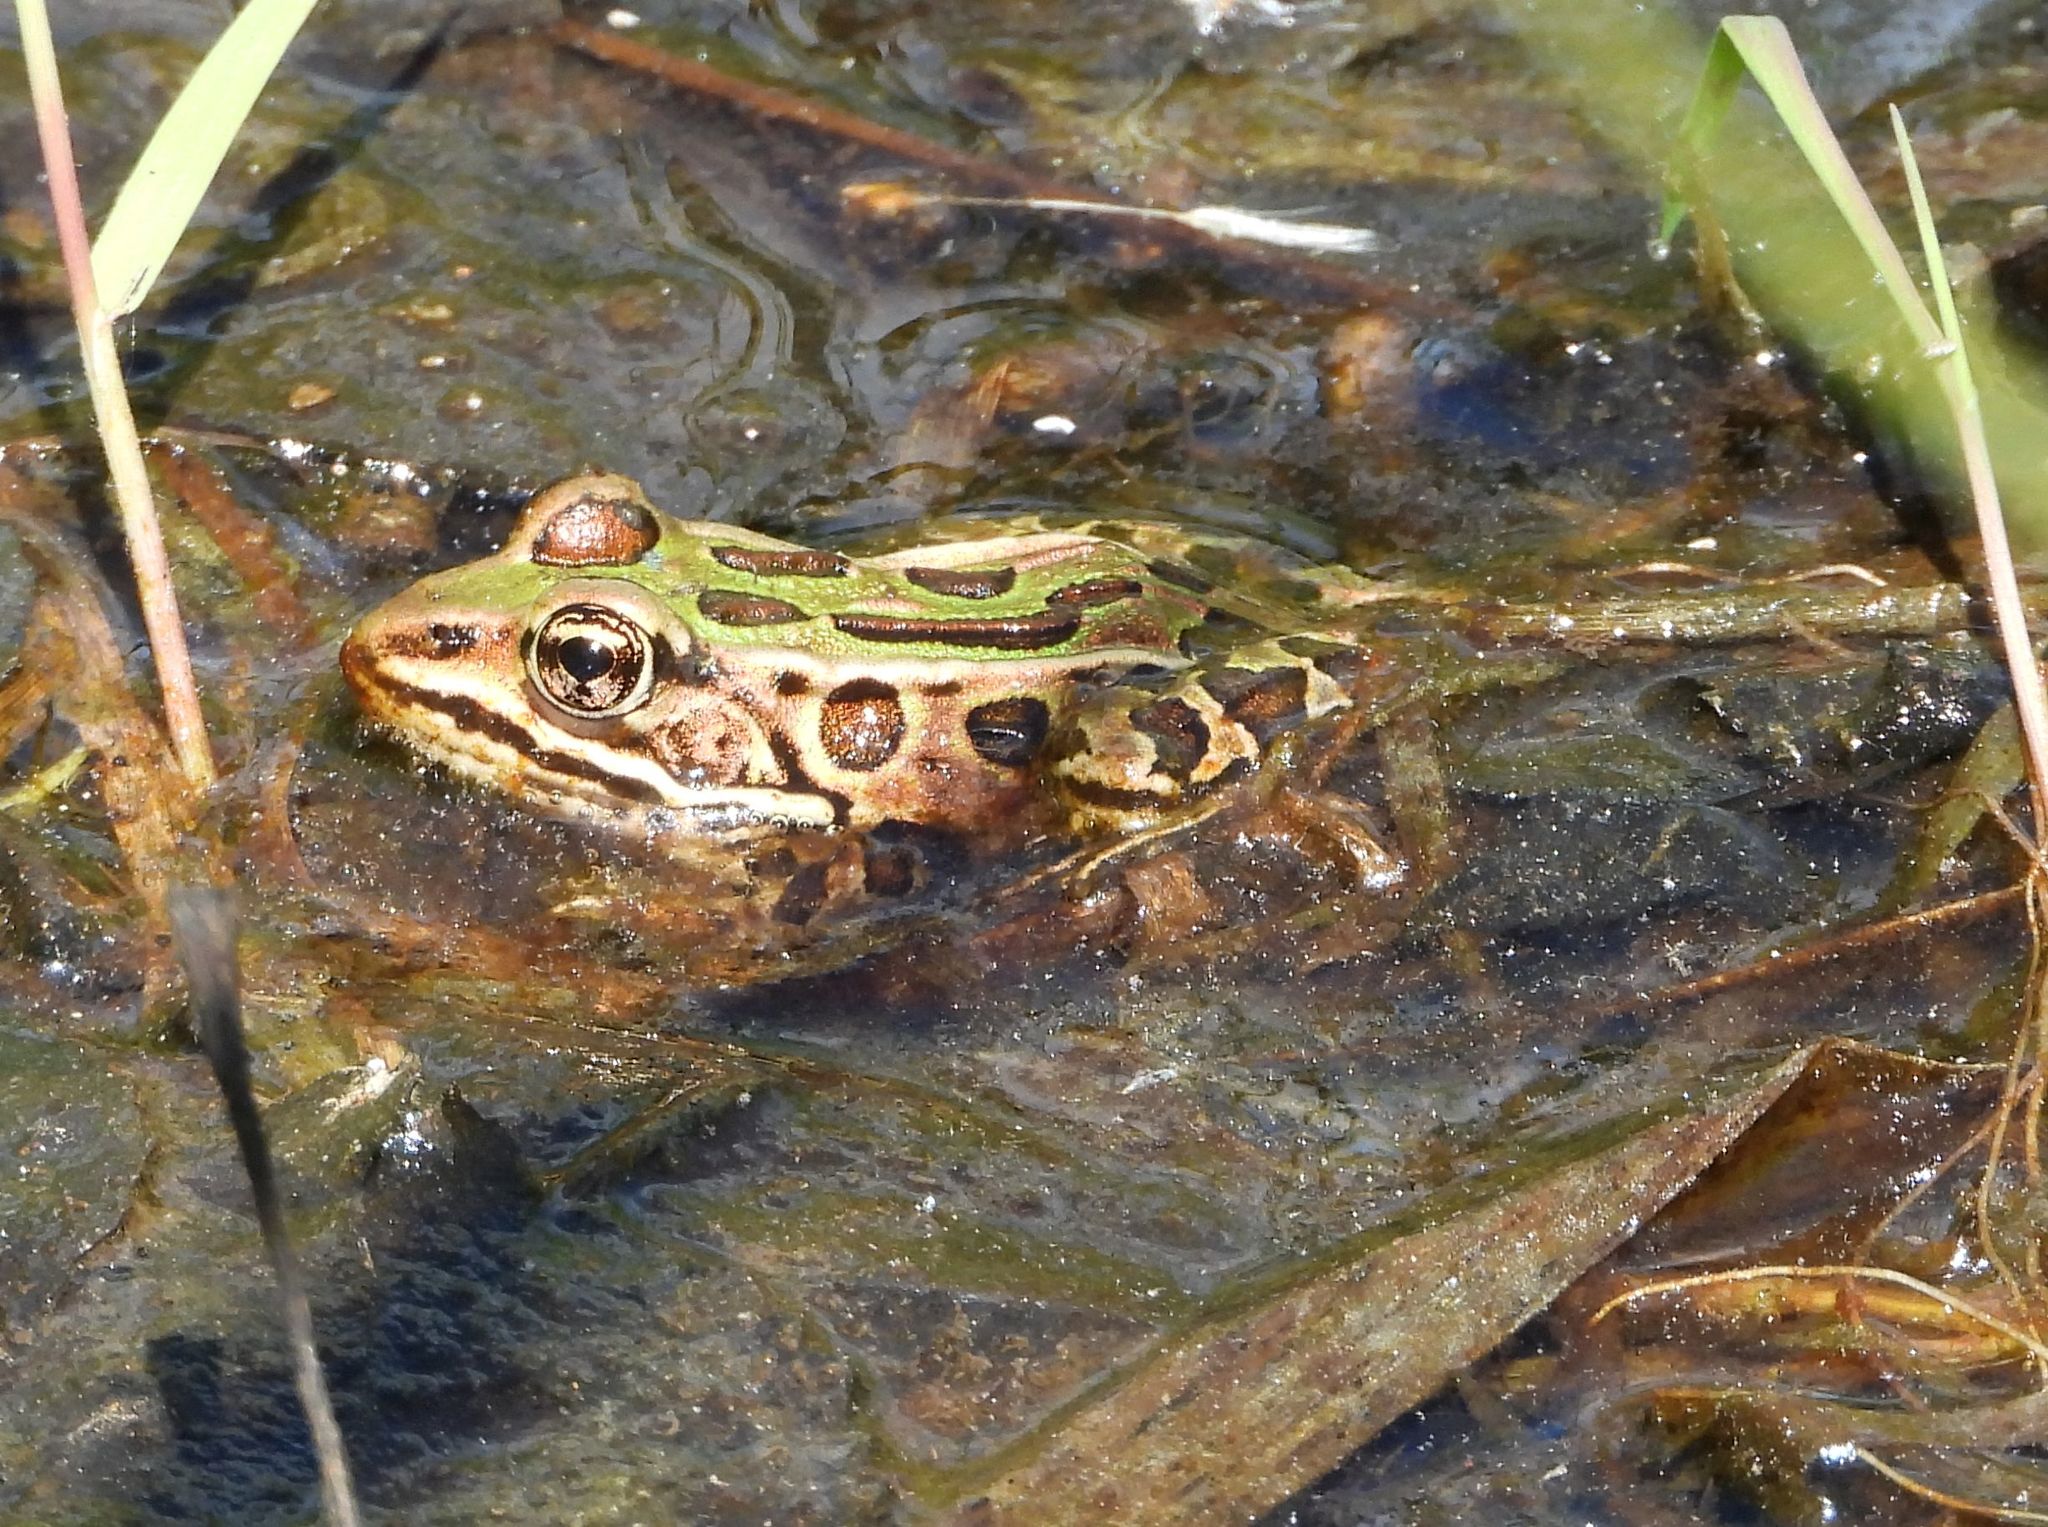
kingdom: Animalia
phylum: Chordata
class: Amphibia
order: Anura
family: Ranidae
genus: Lithobates
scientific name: Lithobates pipiens
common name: Northern leopard frog
